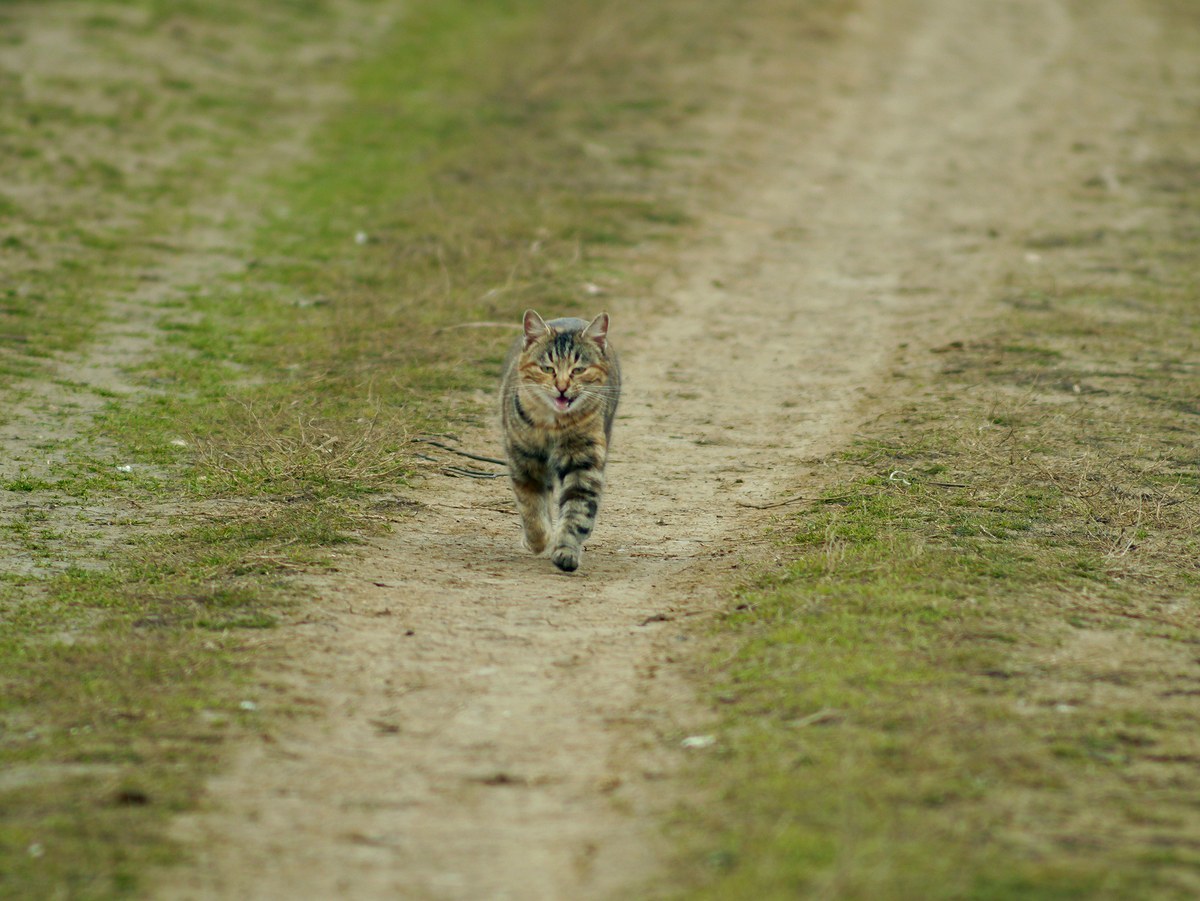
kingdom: Animalia
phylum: Chordata
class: Mammalia
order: Carnivora
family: Felidae
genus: Felis
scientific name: Felis catus
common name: Domestic cat
